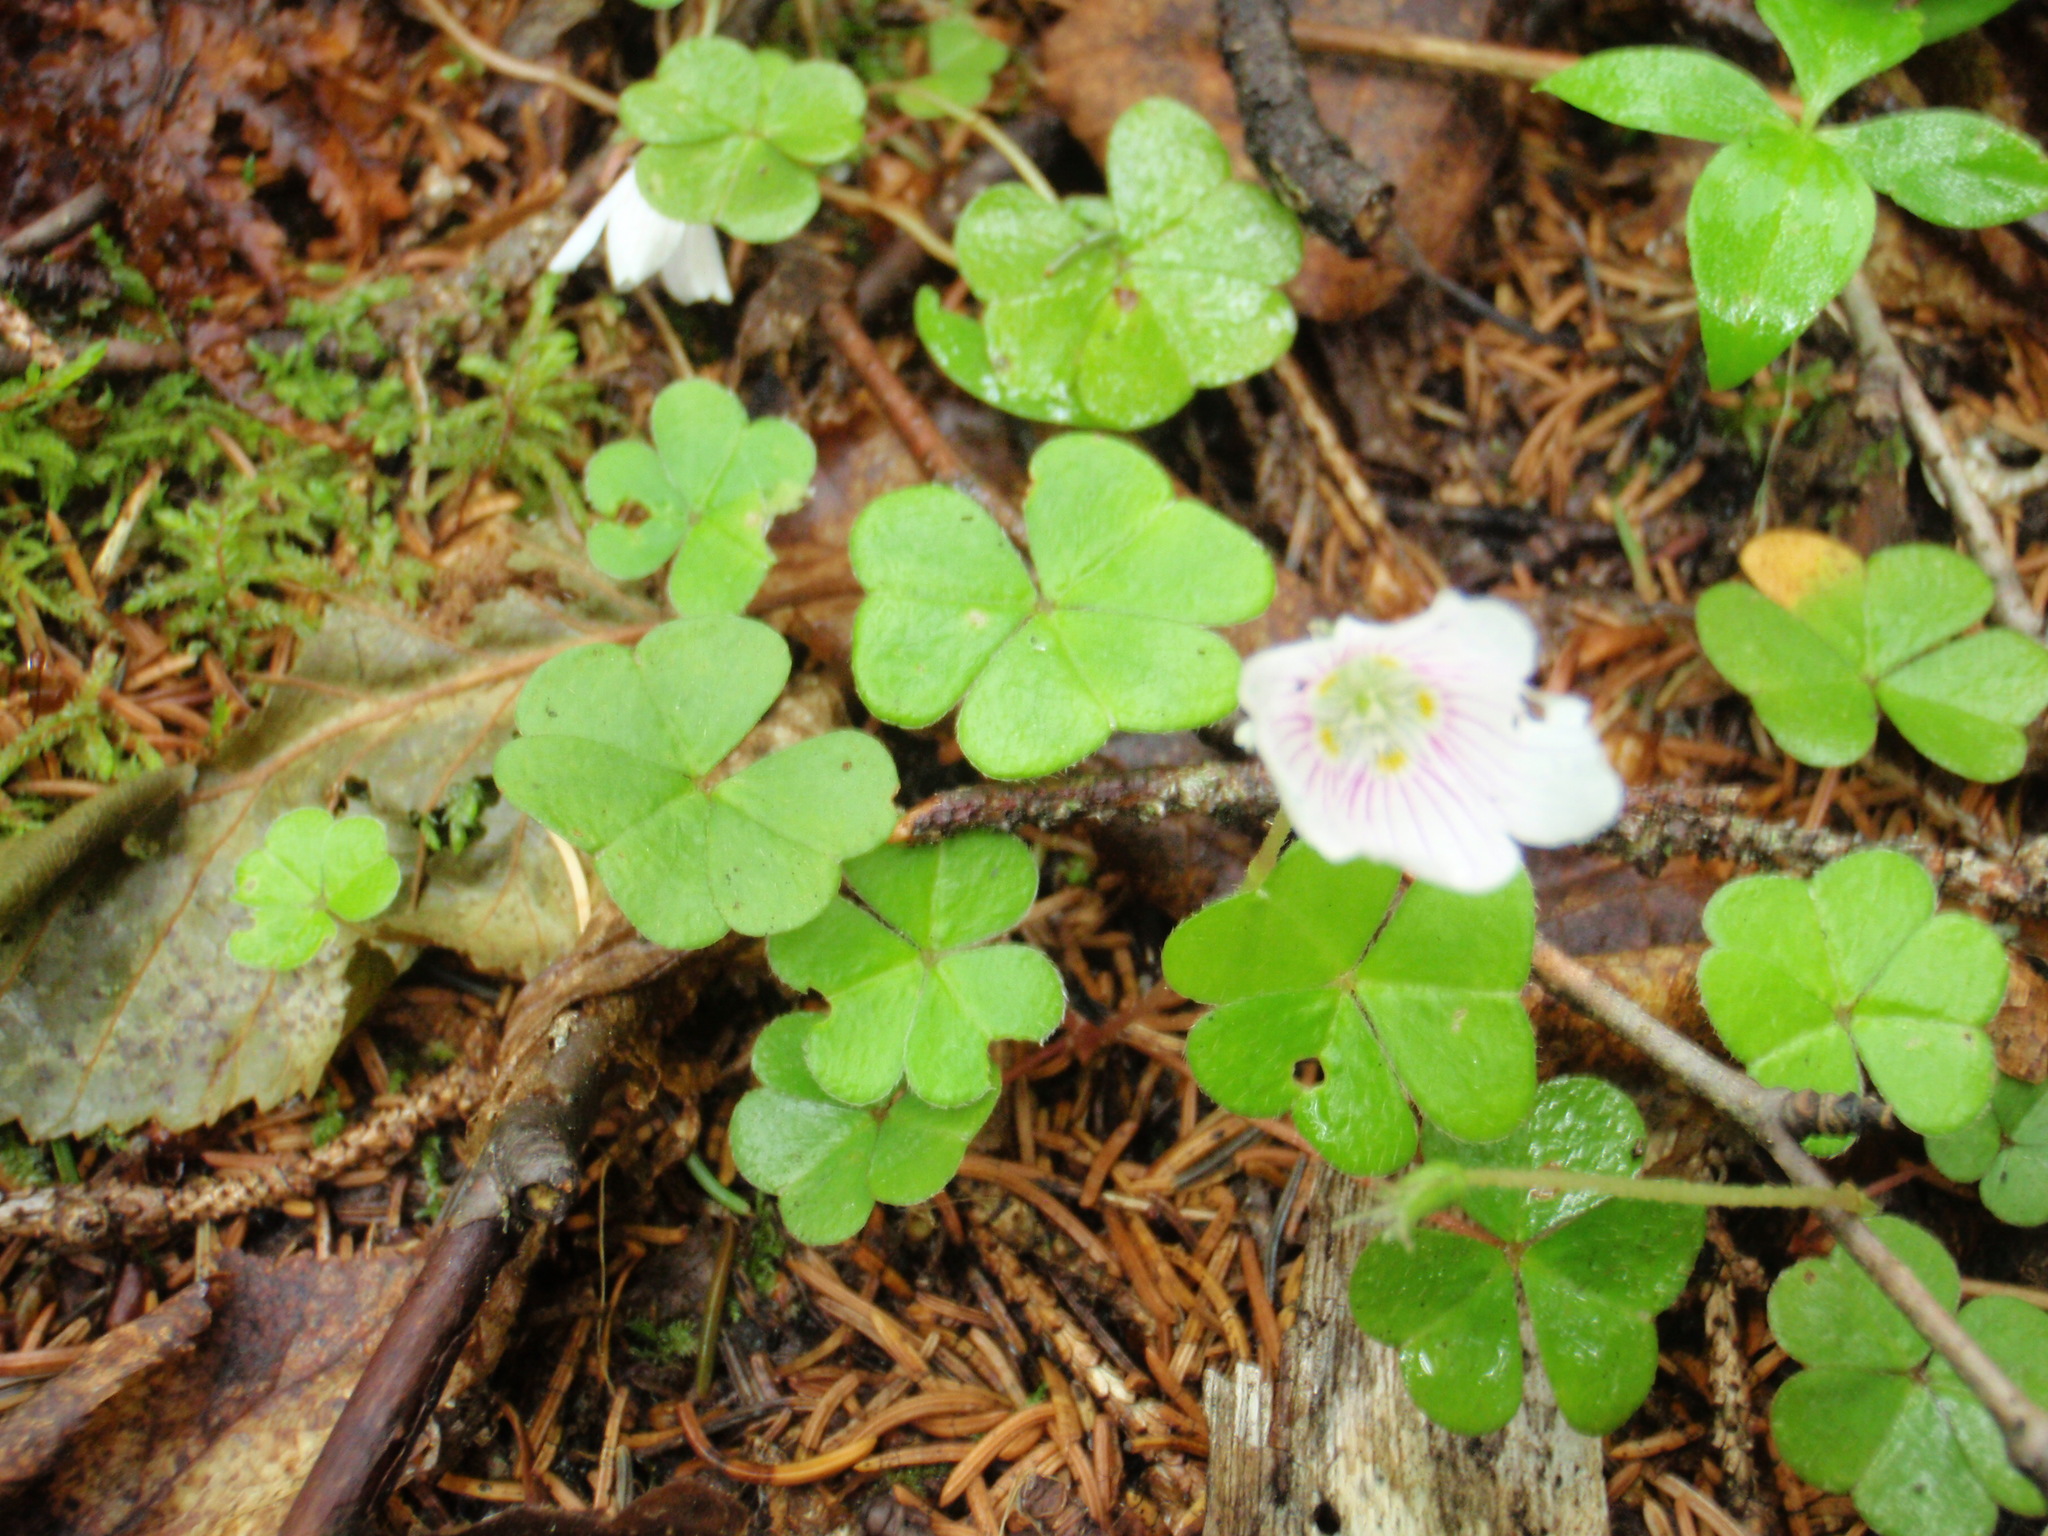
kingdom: Plantae
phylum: Tracheophyta
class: Magnoliopsida
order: Oxalidales
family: Oxalidaceae
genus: Oxalis
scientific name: Oxalis montana
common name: American wood-sorrel
